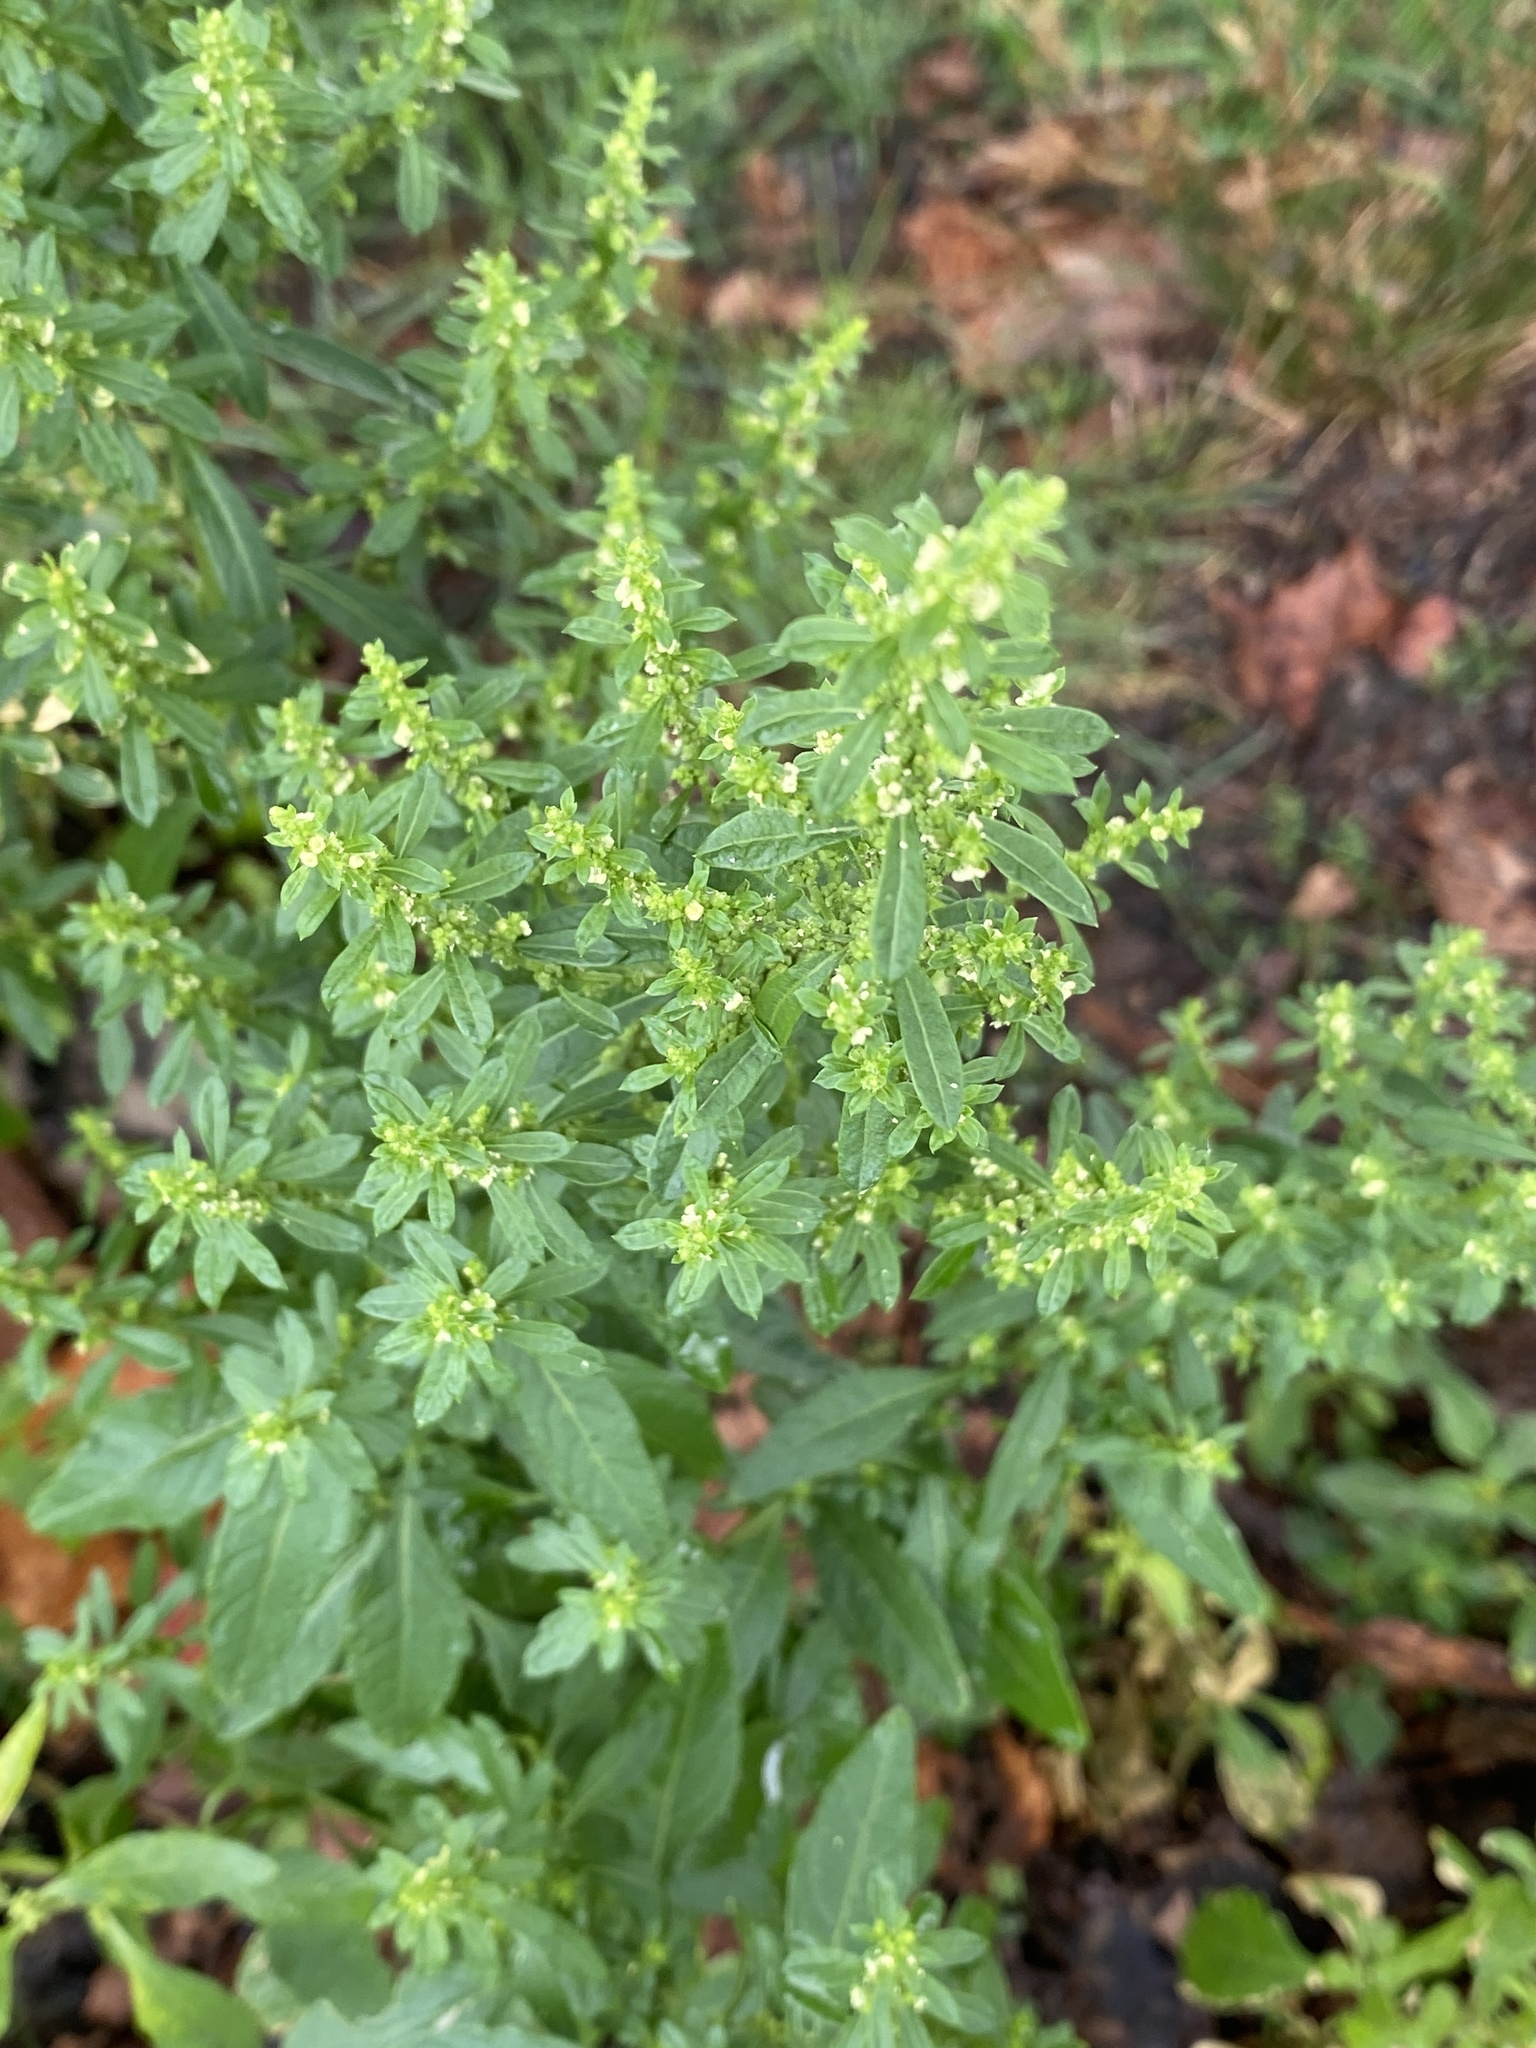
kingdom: Plantae
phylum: Tracheophyta
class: Magnoliopsida
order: Caryophyllales
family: Amaranthaceae
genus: Dysphania
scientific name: Dysphania ambrosioides
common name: Wormseed
